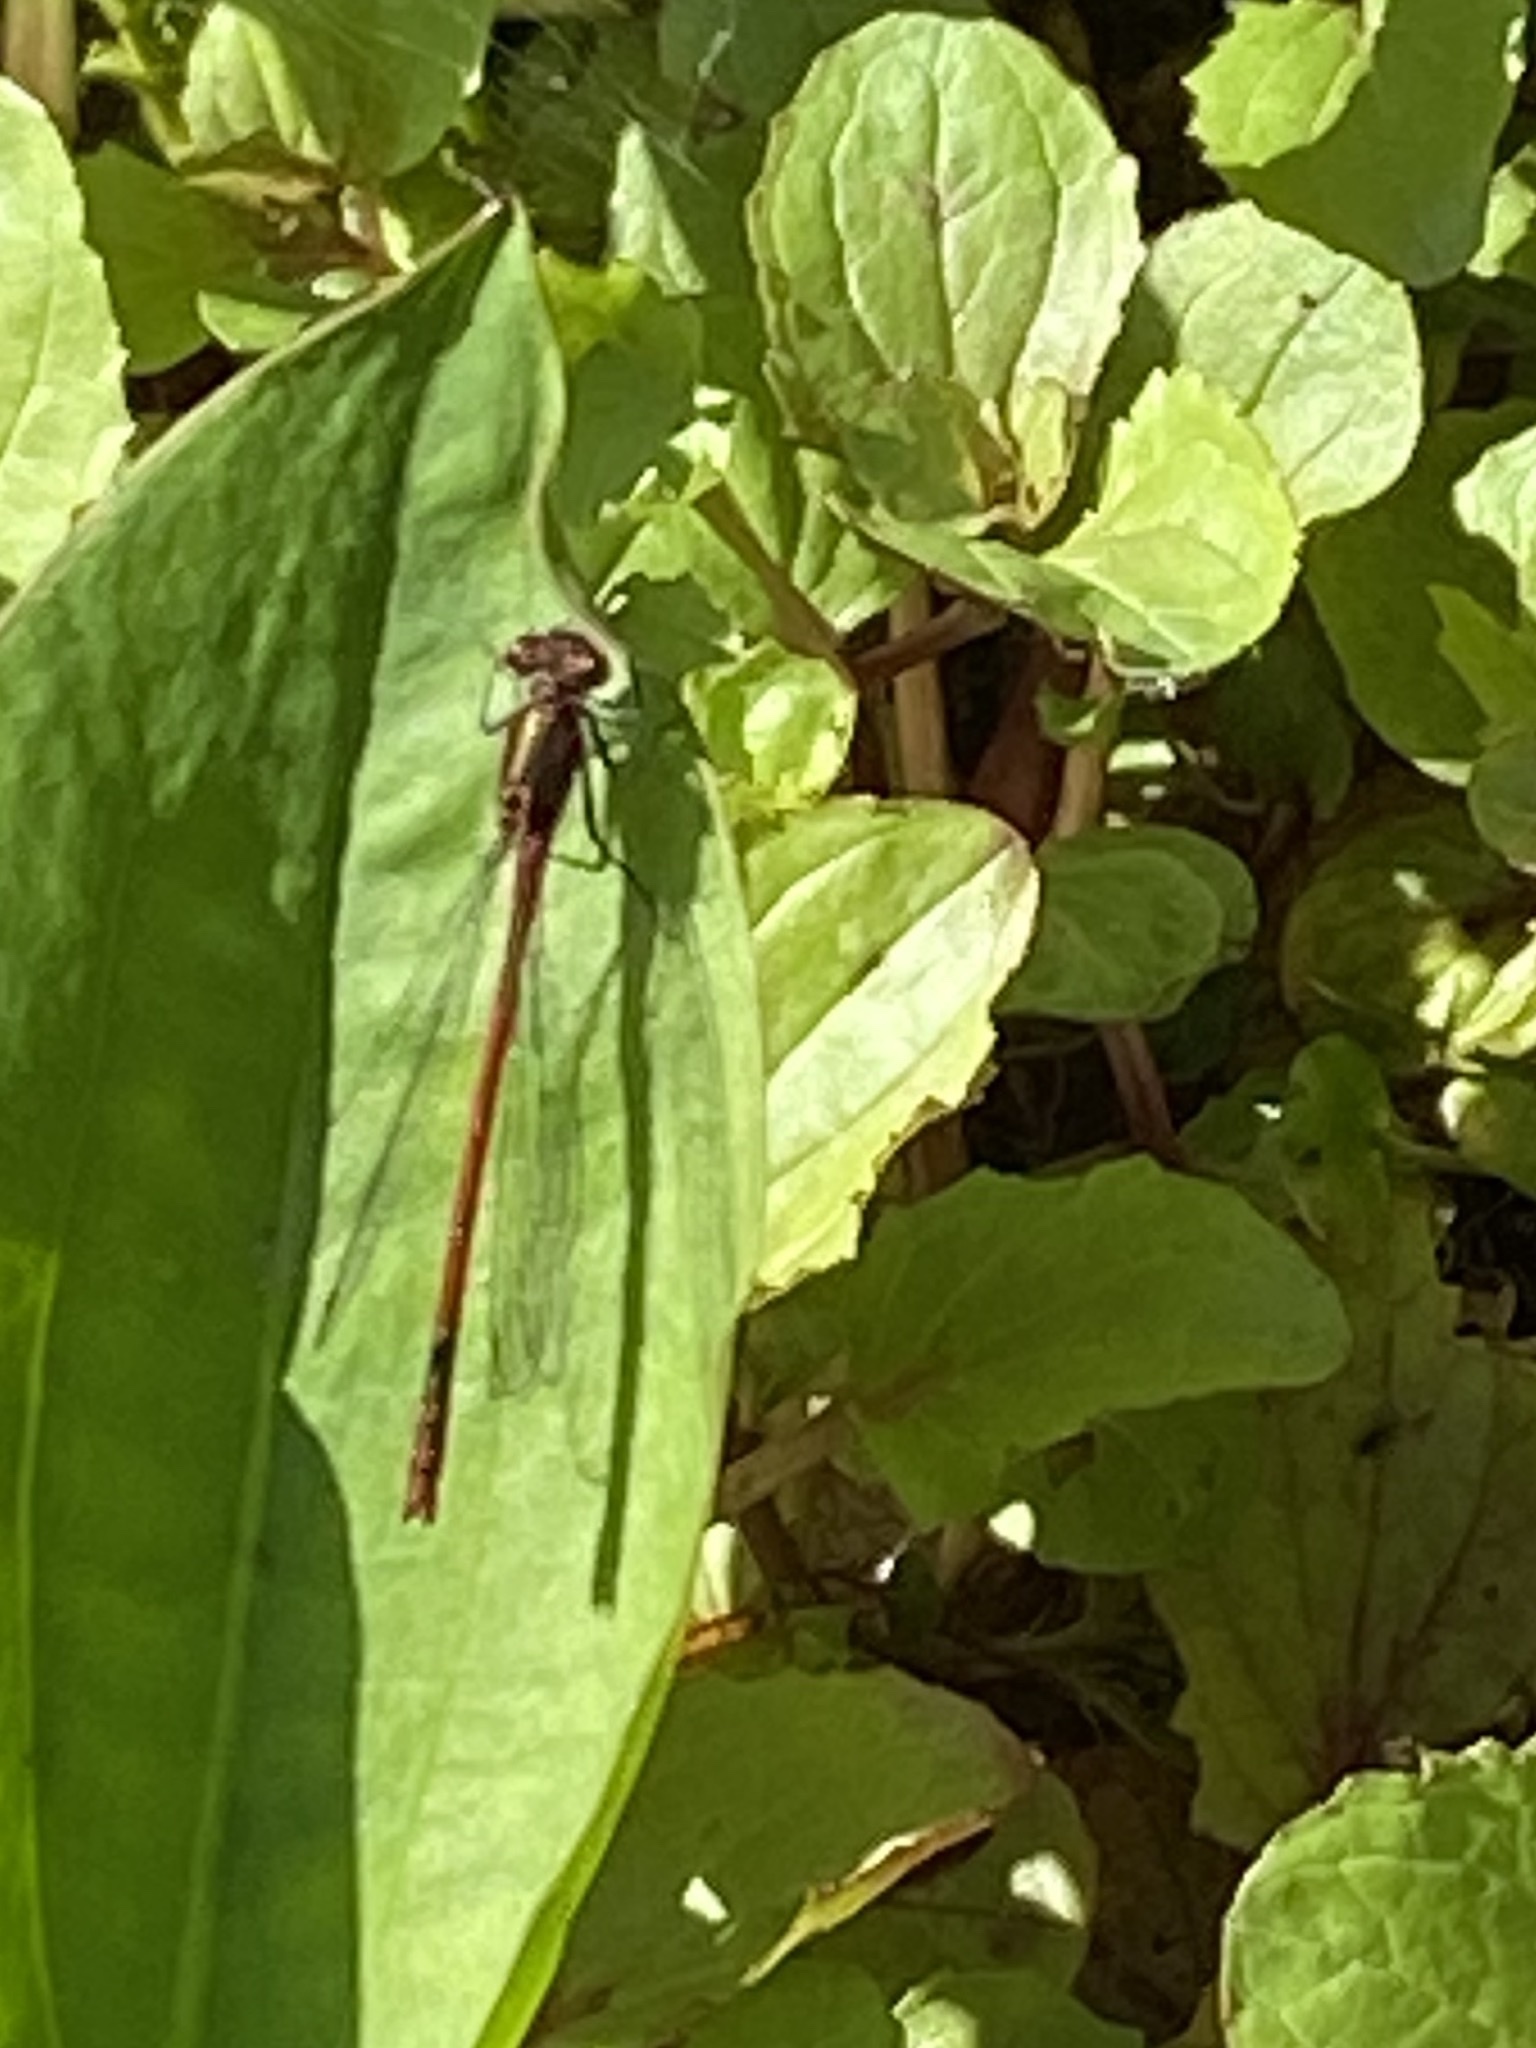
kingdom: Animalia
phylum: Arthropoda
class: Insecta
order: Odonata
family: Coenagrionidae
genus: Pyrrhosoma
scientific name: Pyrrhosoma nymphula
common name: Large red damsel
